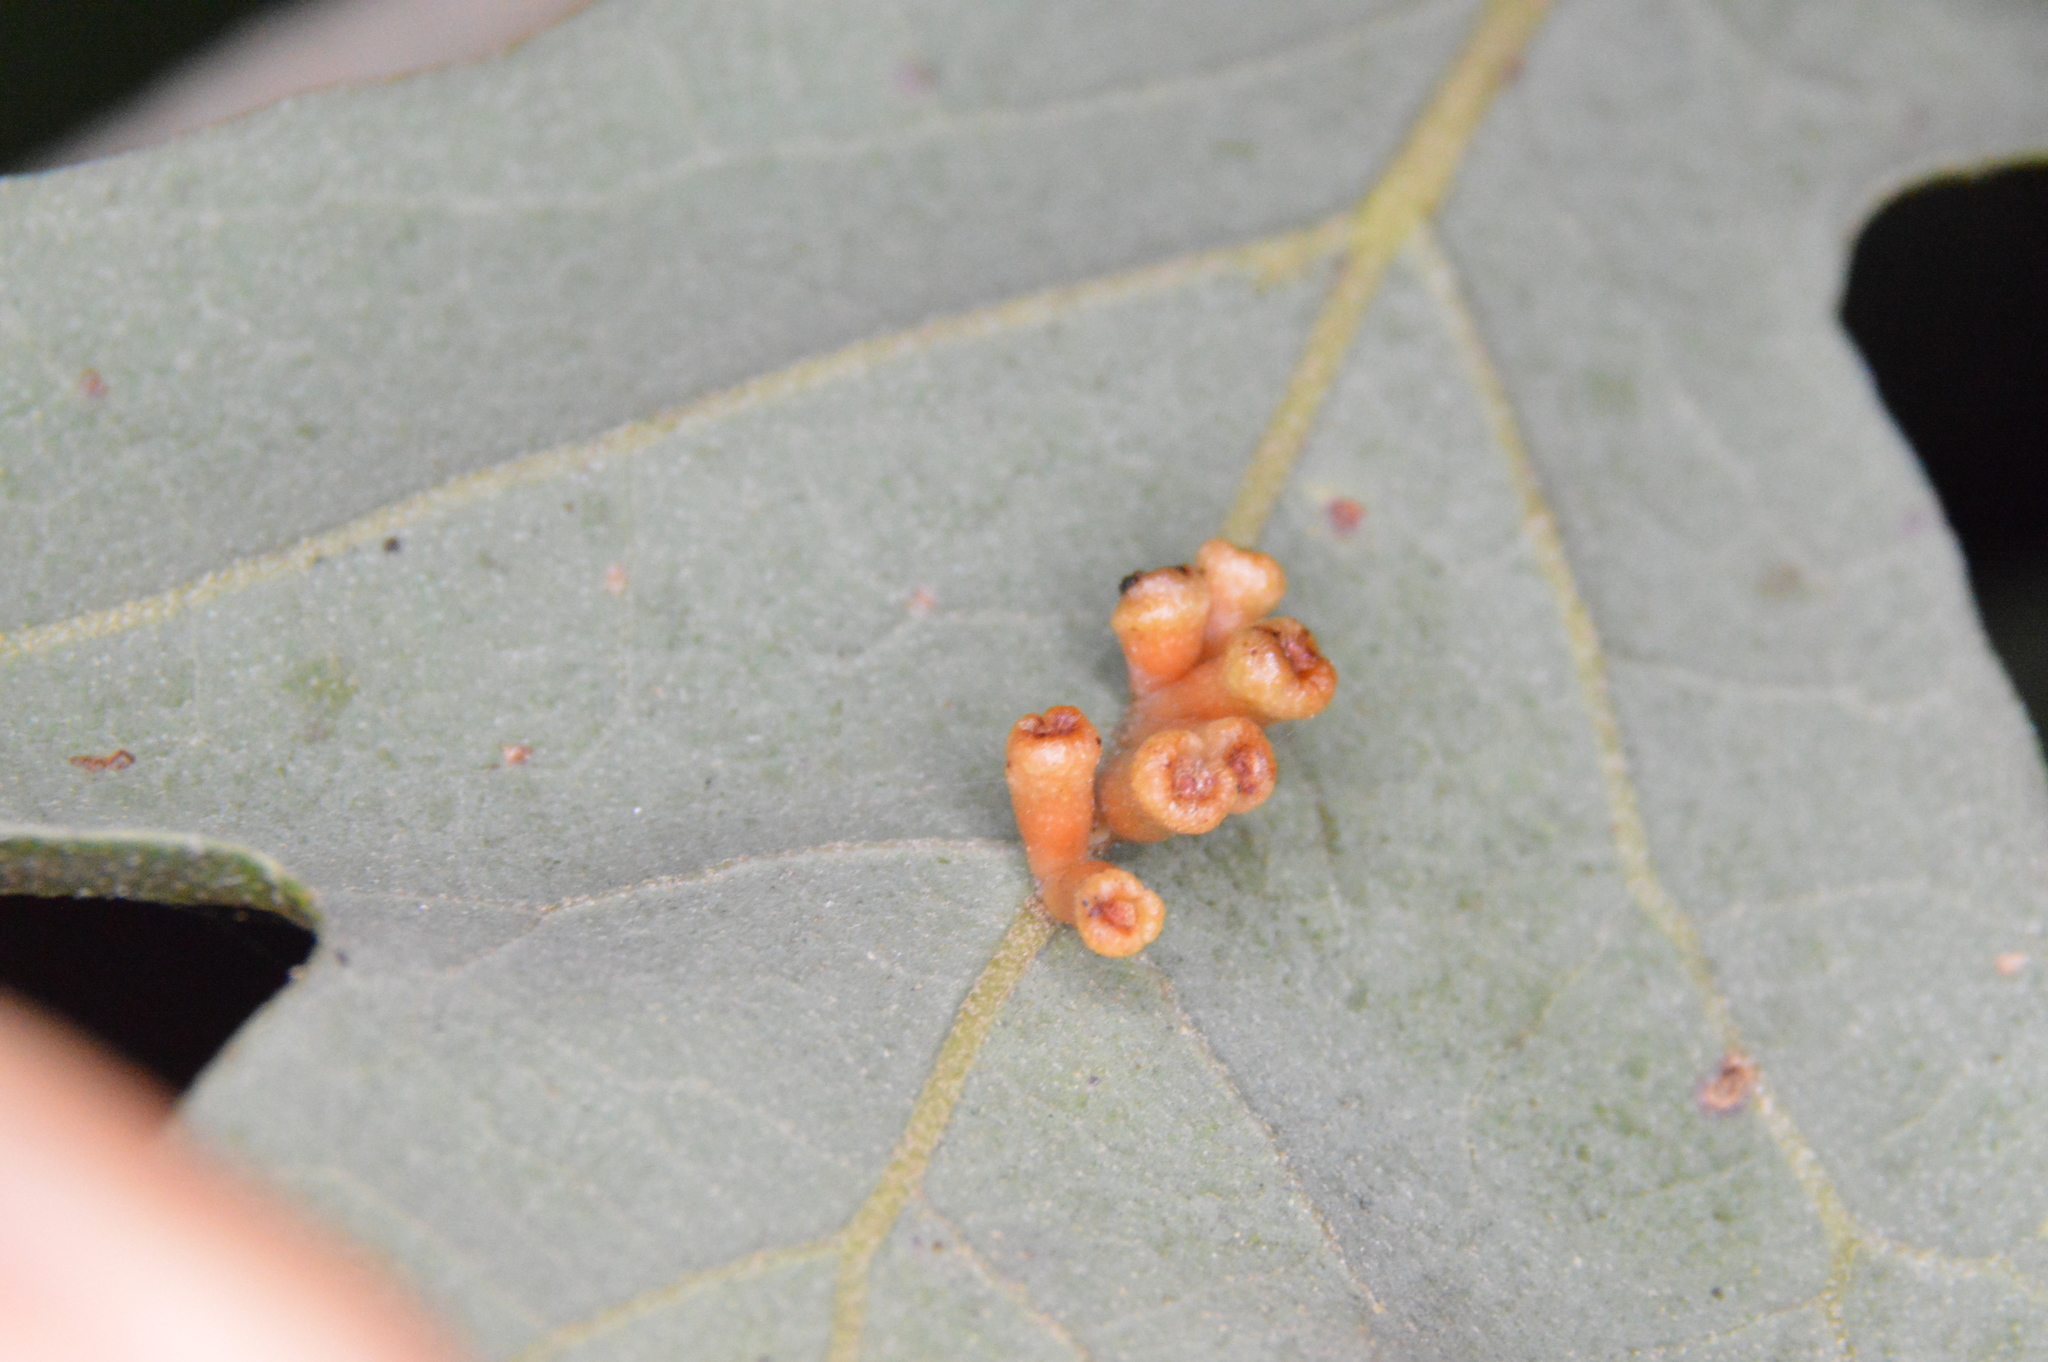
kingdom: Animalia
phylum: Arthropoda
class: Insecta
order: Hymenoptera
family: Cynipidae
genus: Andricus
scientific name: Andricus lustrans
